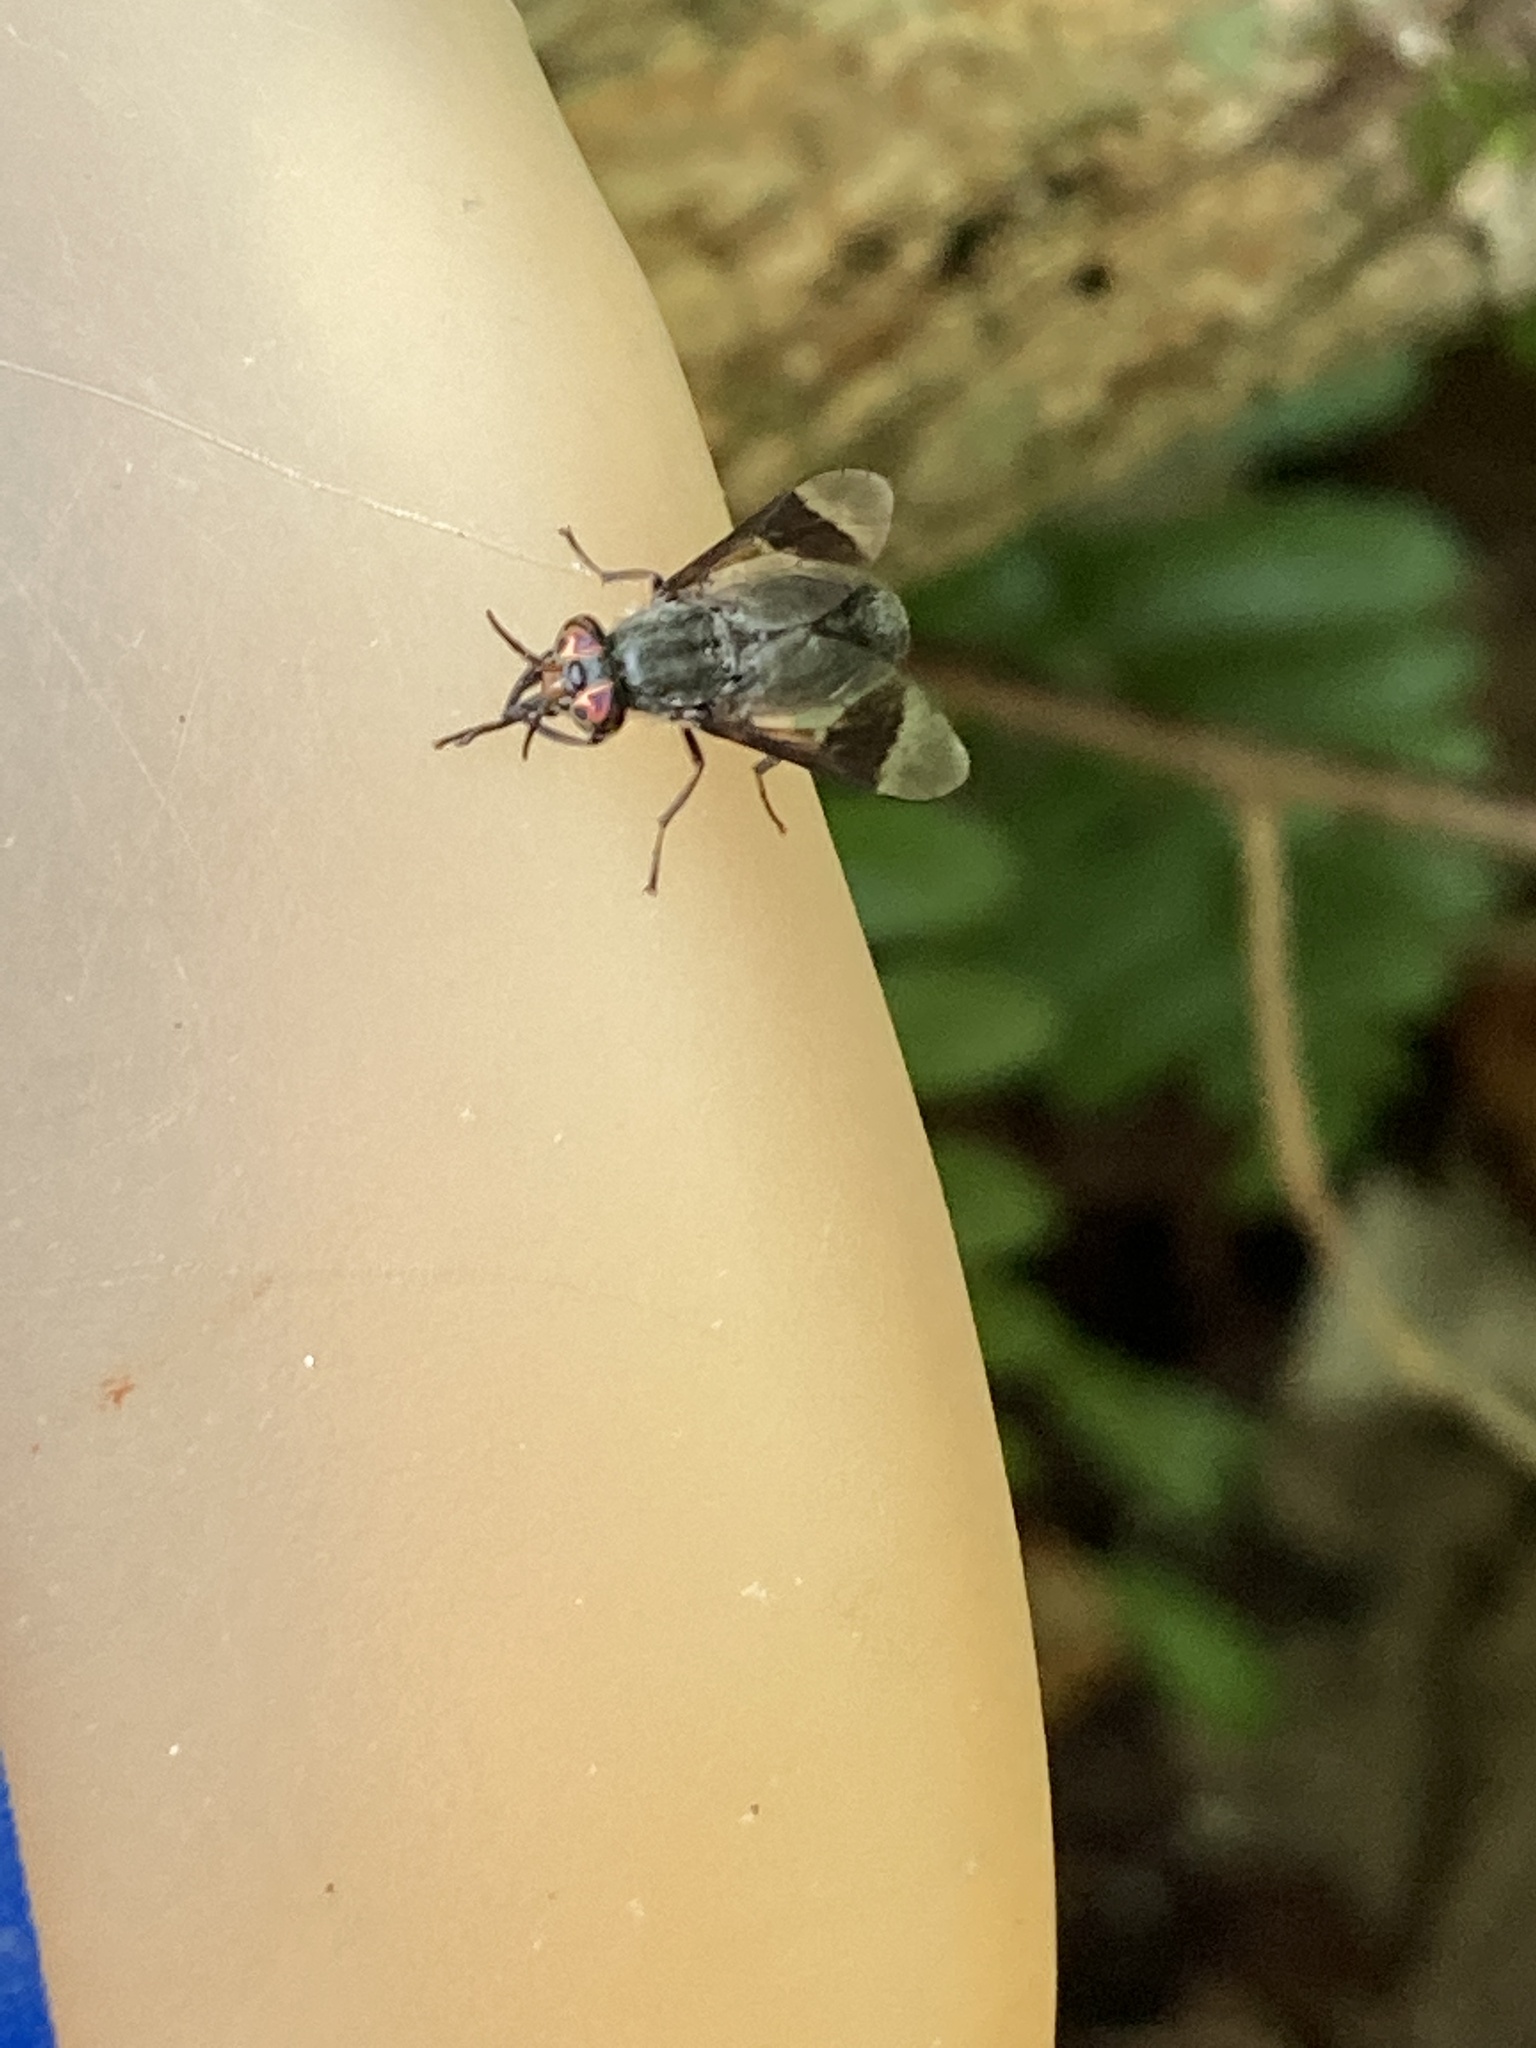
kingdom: Animalia
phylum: Arthropoda
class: Insecta
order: Diptera
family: Tabanidae
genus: Chrysops
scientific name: Chrysops niger
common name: Black deer fly
